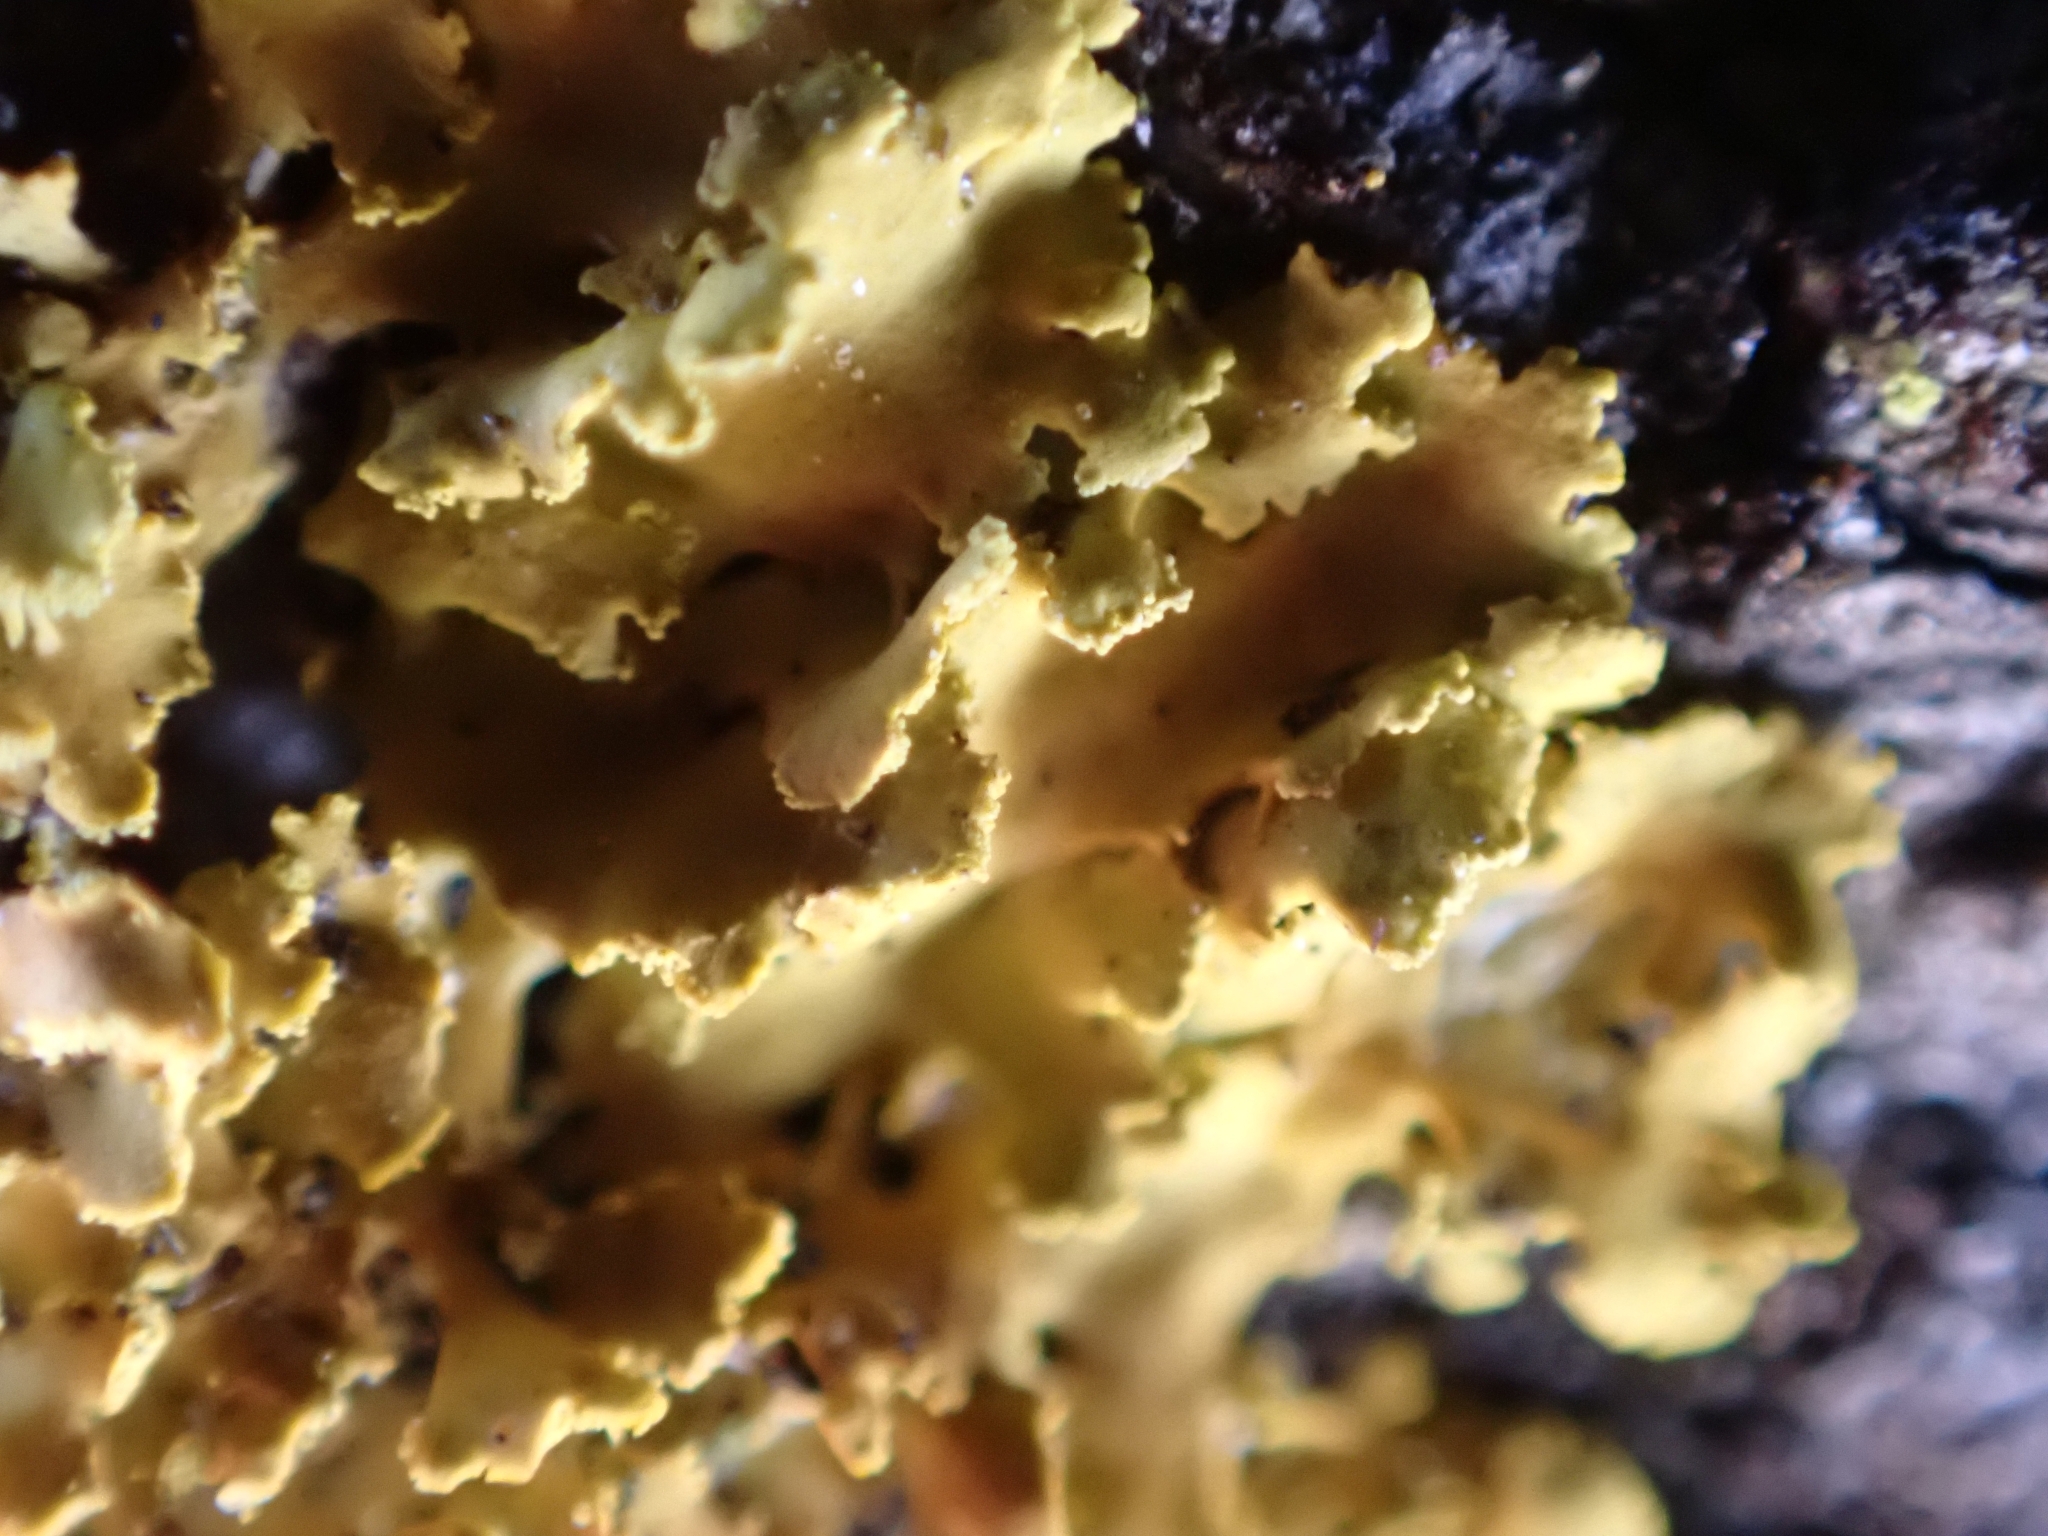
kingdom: Fungi
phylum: Ascomycota
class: Lecanoromycetes
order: Teloschistales
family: Teloschistaceae
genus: Xanthoria
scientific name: Xanthoria ulophyllodes
